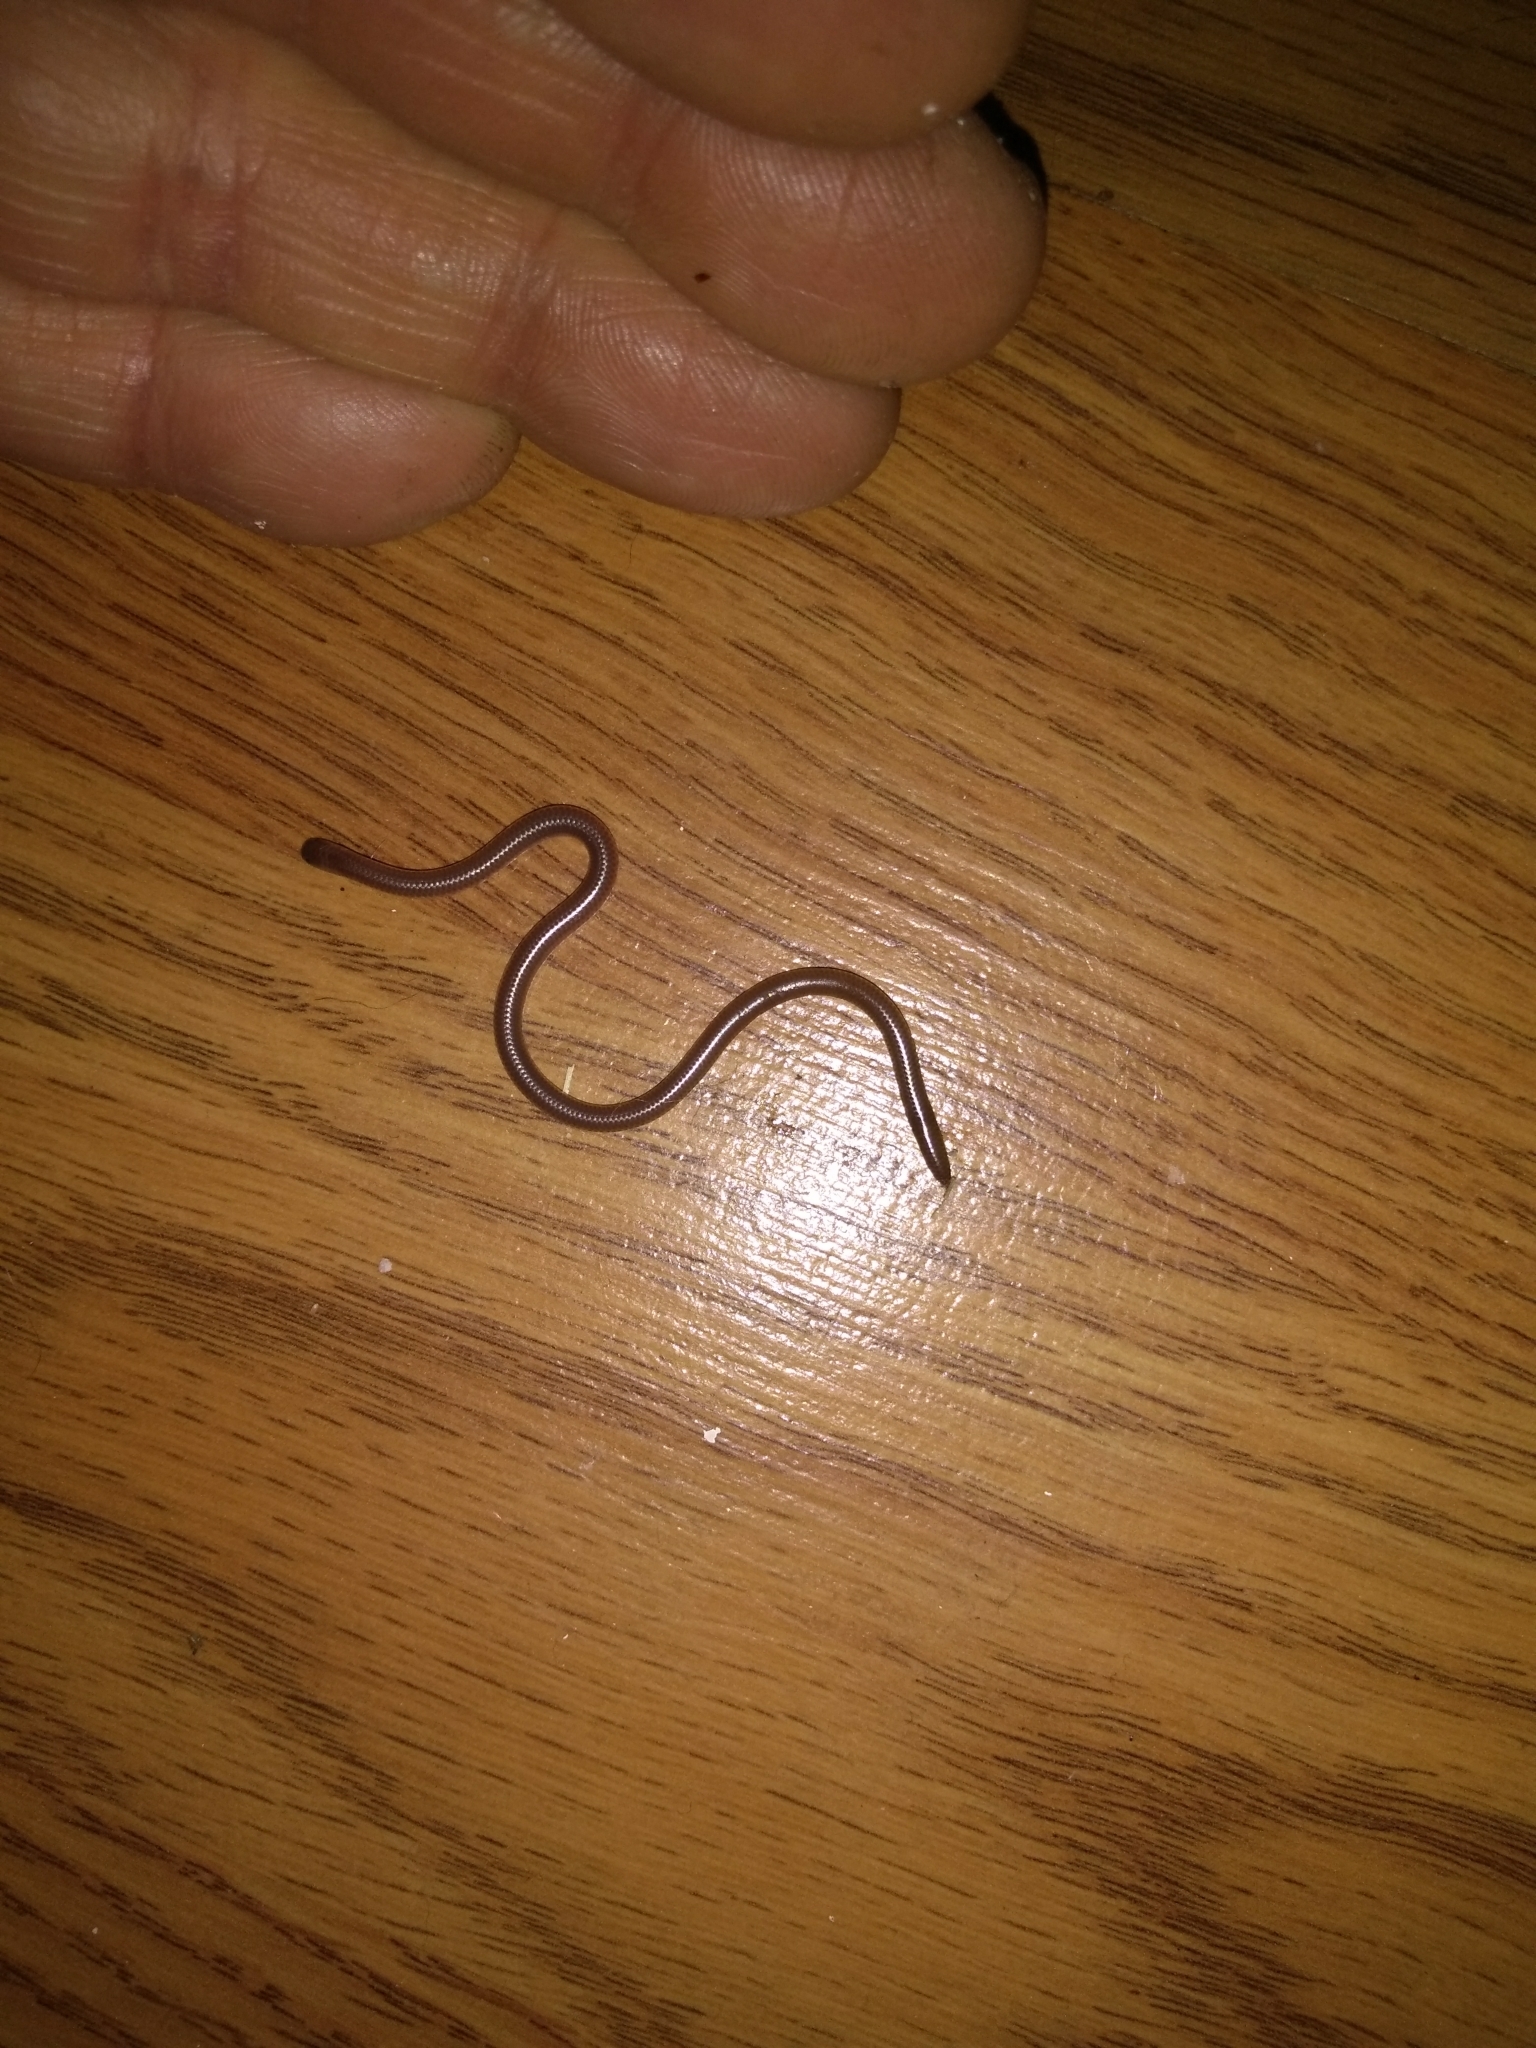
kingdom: Animalia
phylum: Chordata
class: Squamata
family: Leptotyphlopidae
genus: Rena
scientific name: Rena dulcis
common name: Texas blind snake
